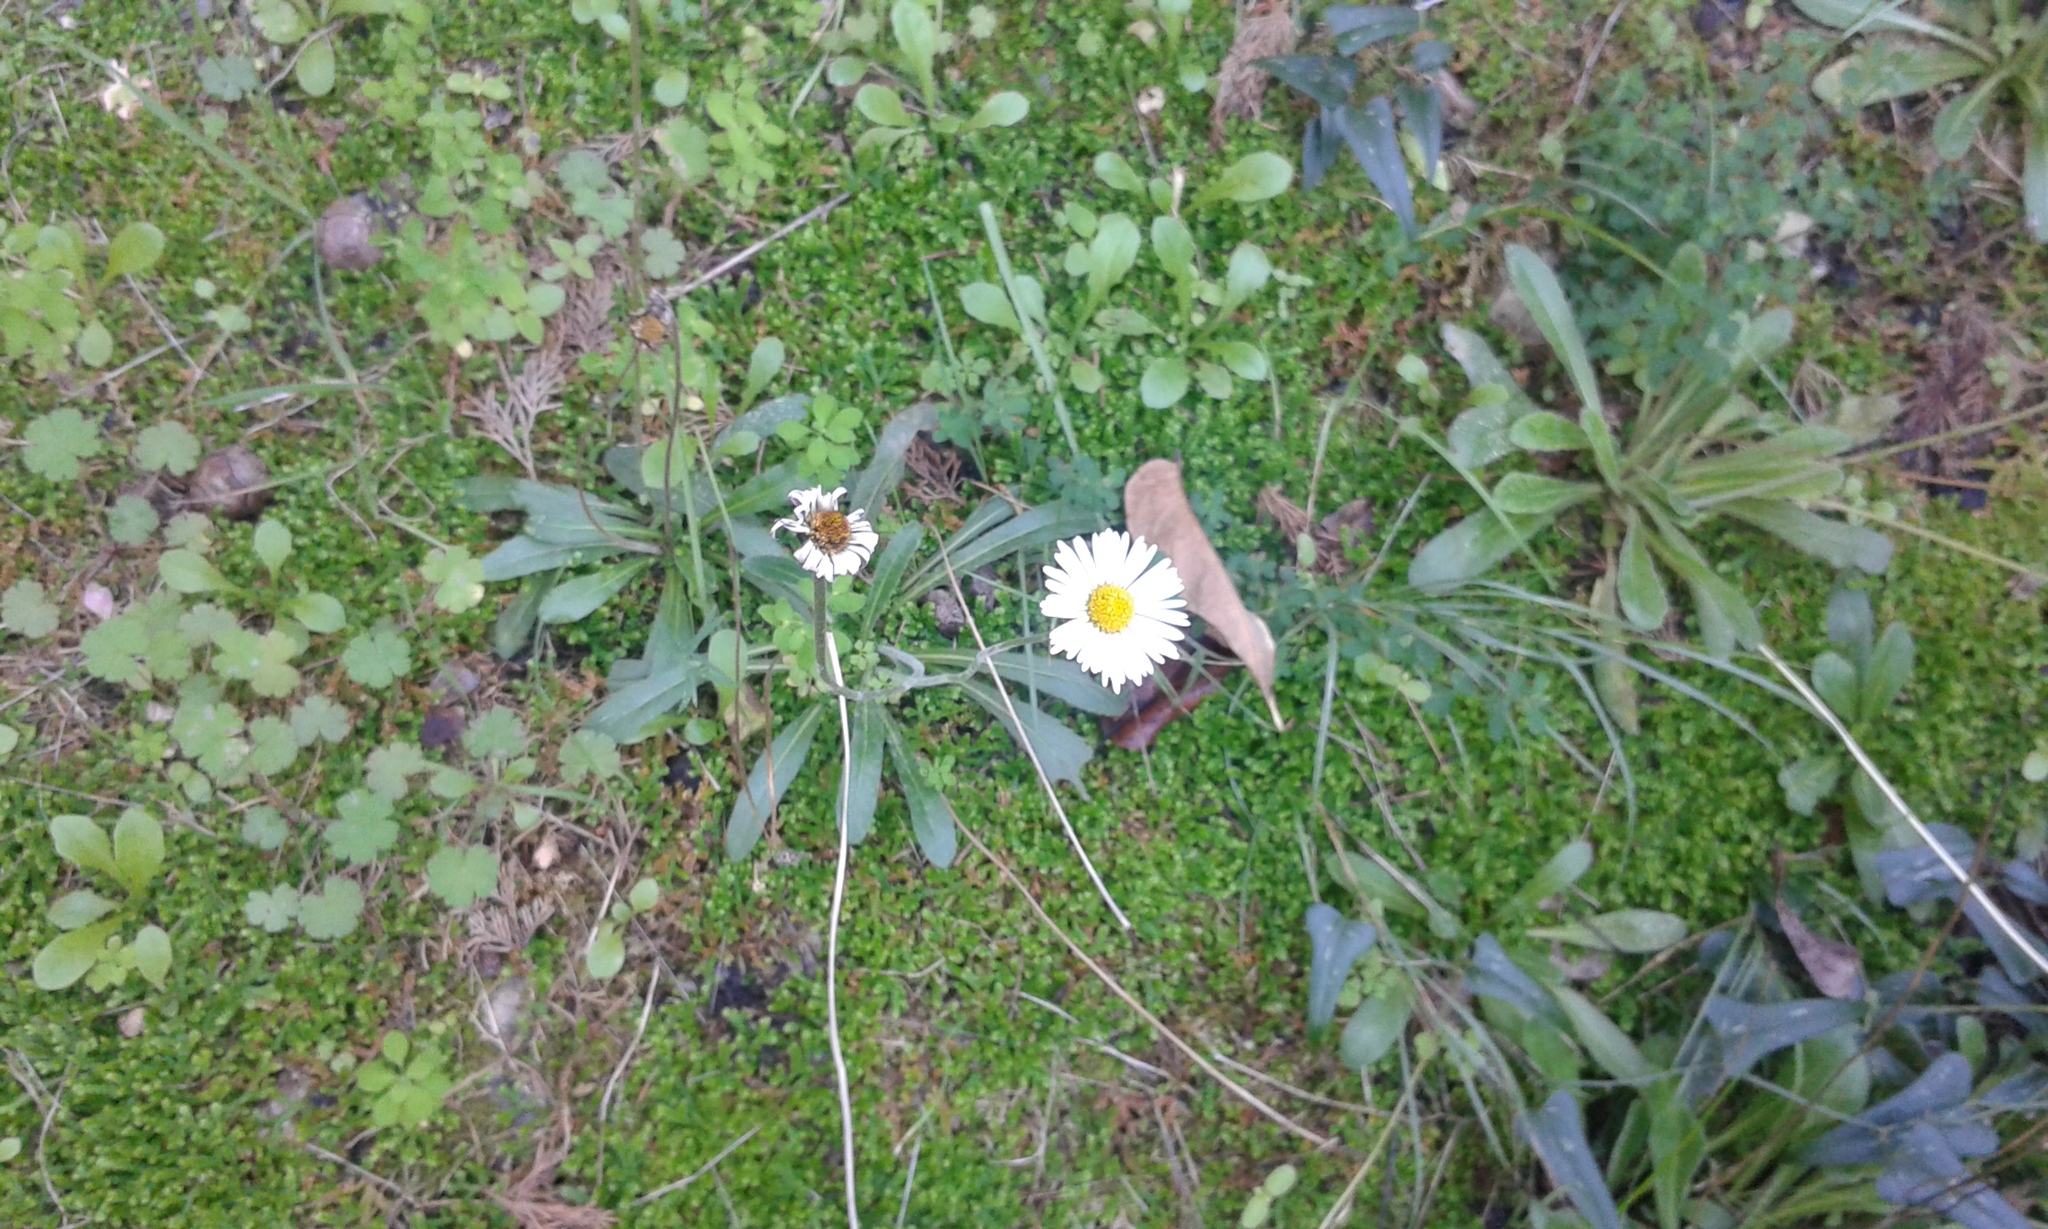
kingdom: Plantae
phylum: Tracheophyta
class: Magnoliopsida
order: Asterales
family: Asteraceae
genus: Bellis
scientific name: Bellis sylvestris
